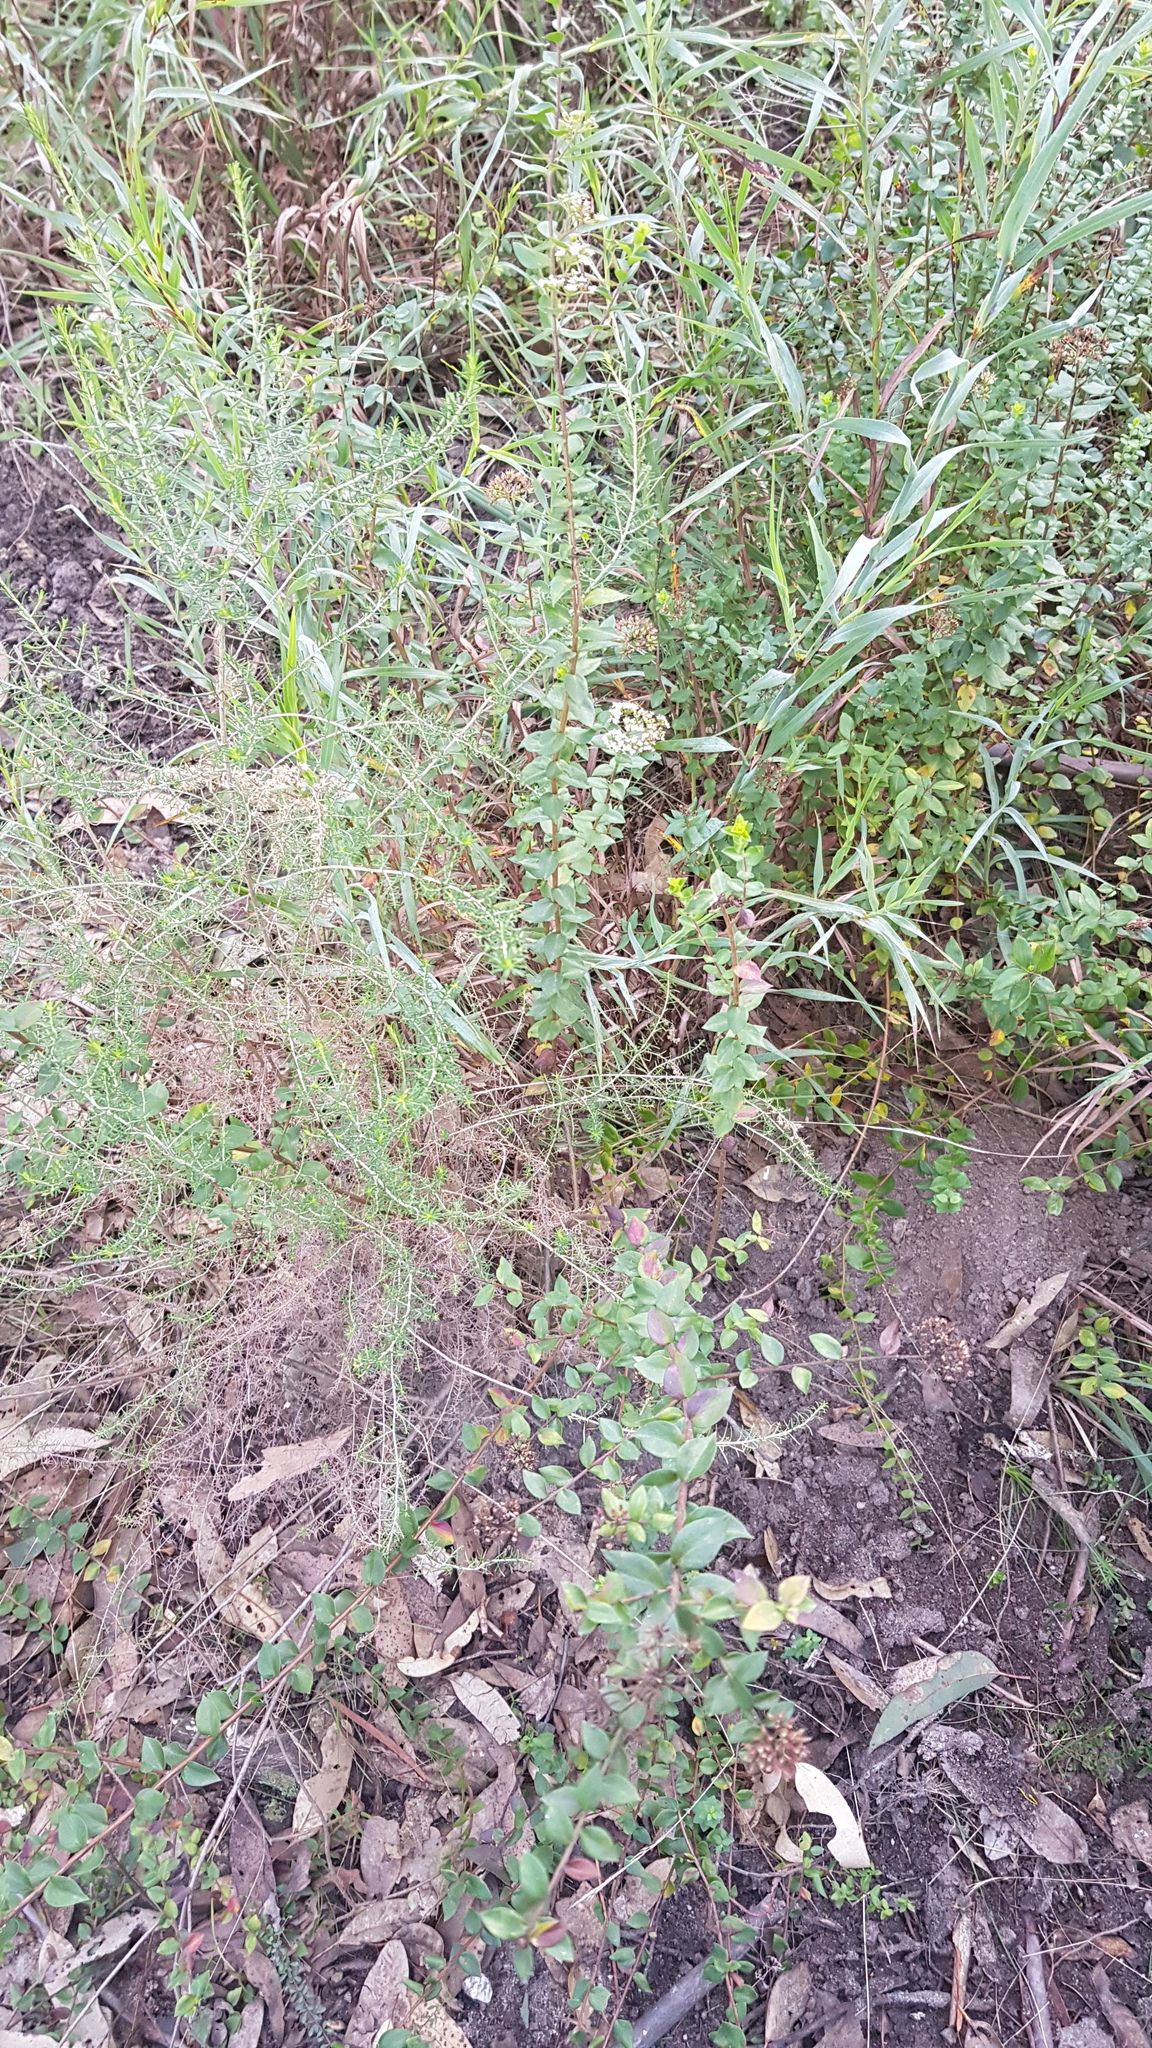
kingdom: Plantae
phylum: Tracheophyta
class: Magnoliopsida
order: Apiales
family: Apiaceae
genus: Platysace
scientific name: Platysace lanceolata
